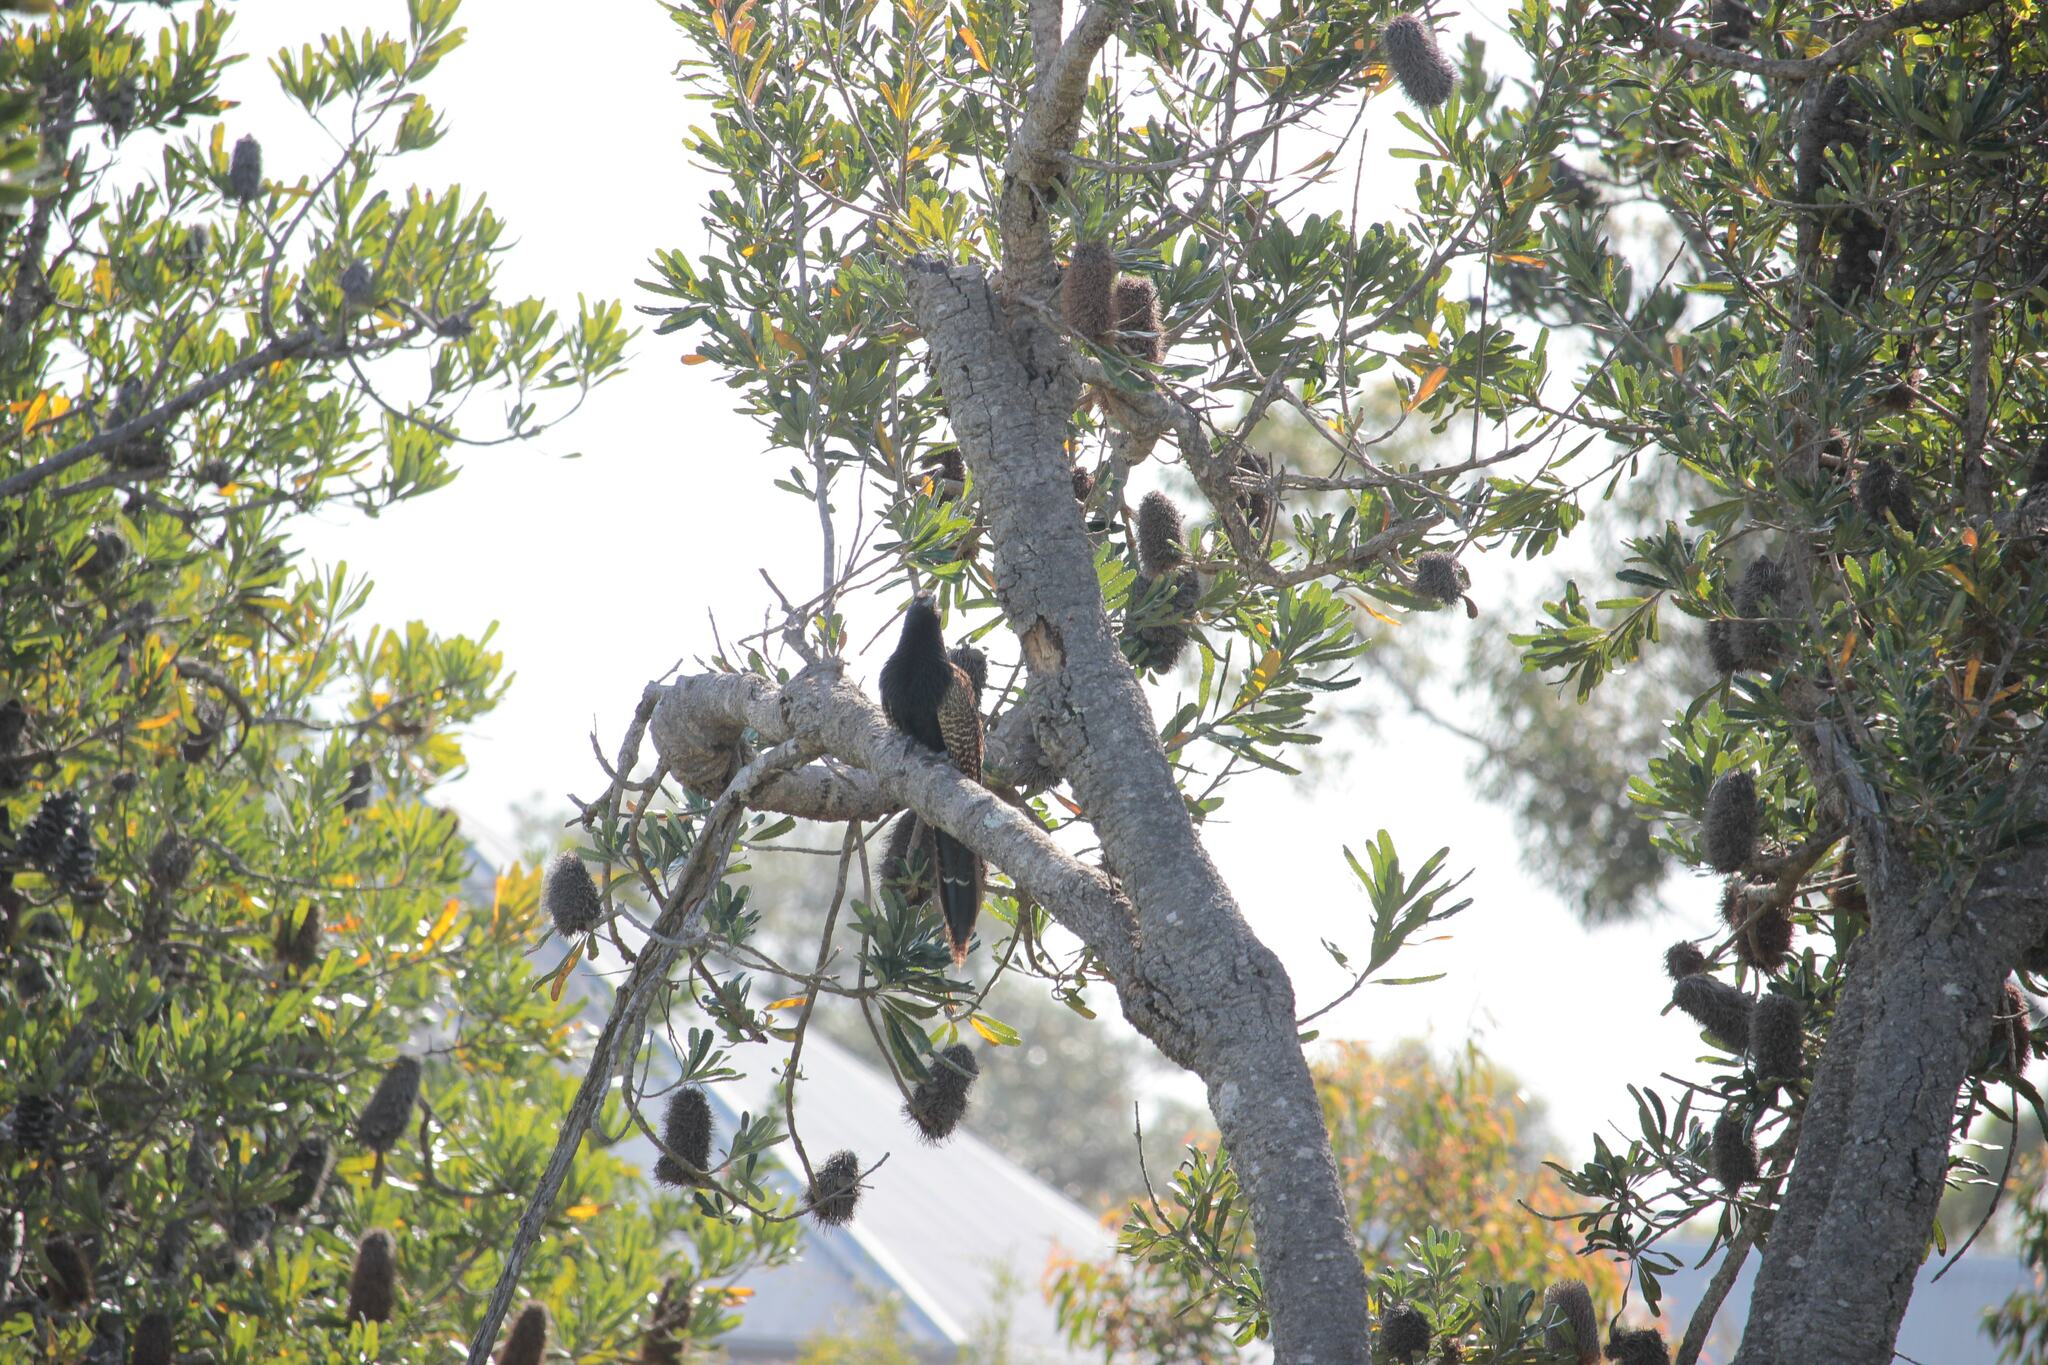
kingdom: Animalia
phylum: Chordata
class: Aves
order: Cuculiformes
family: Cuculidae
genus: Centropus
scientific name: Centropus phasianinus
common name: Pheasant coucal
